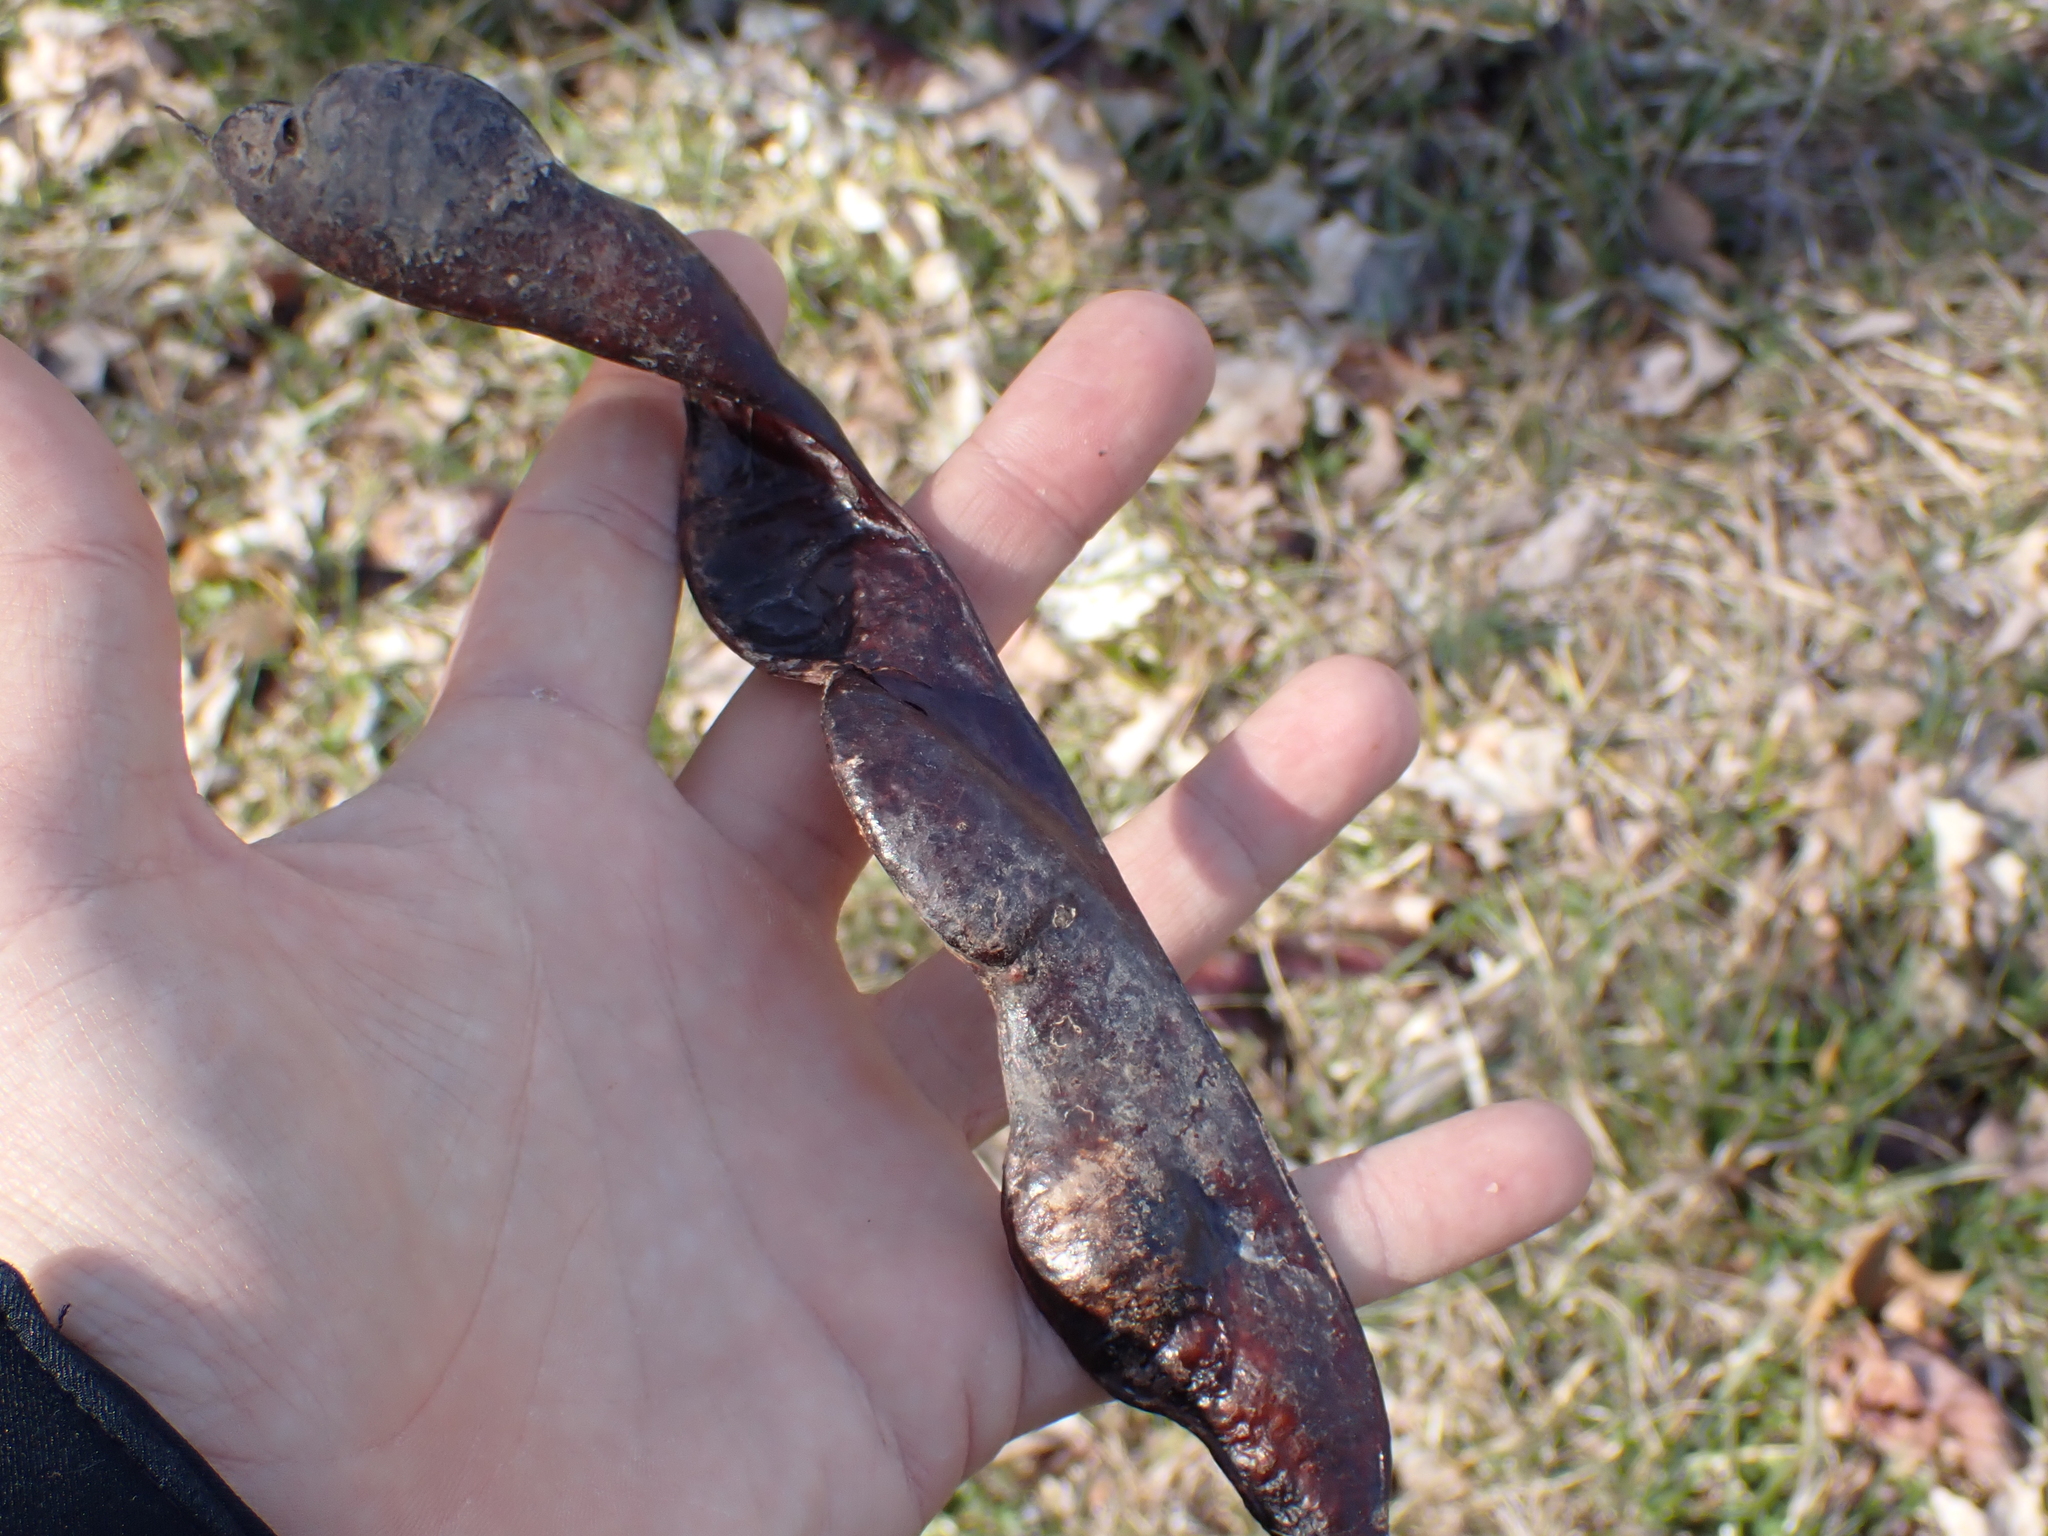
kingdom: Plantae
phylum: Tracheophyta
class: Magnoliopsida
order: Fabales
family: Fabaceae
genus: Gleditsia
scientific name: Gleditsia triacanthos
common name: Common honeylocust
